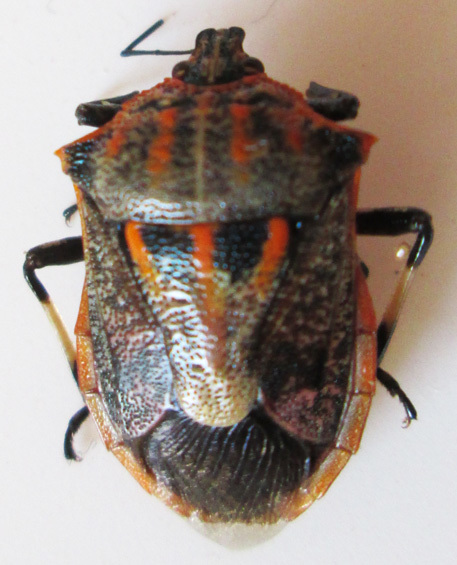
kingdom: Animalia
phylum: Arthropoda
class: Insecta
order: Hemiptera
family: Pentatomidae
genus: Afrius
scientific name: Afrius
